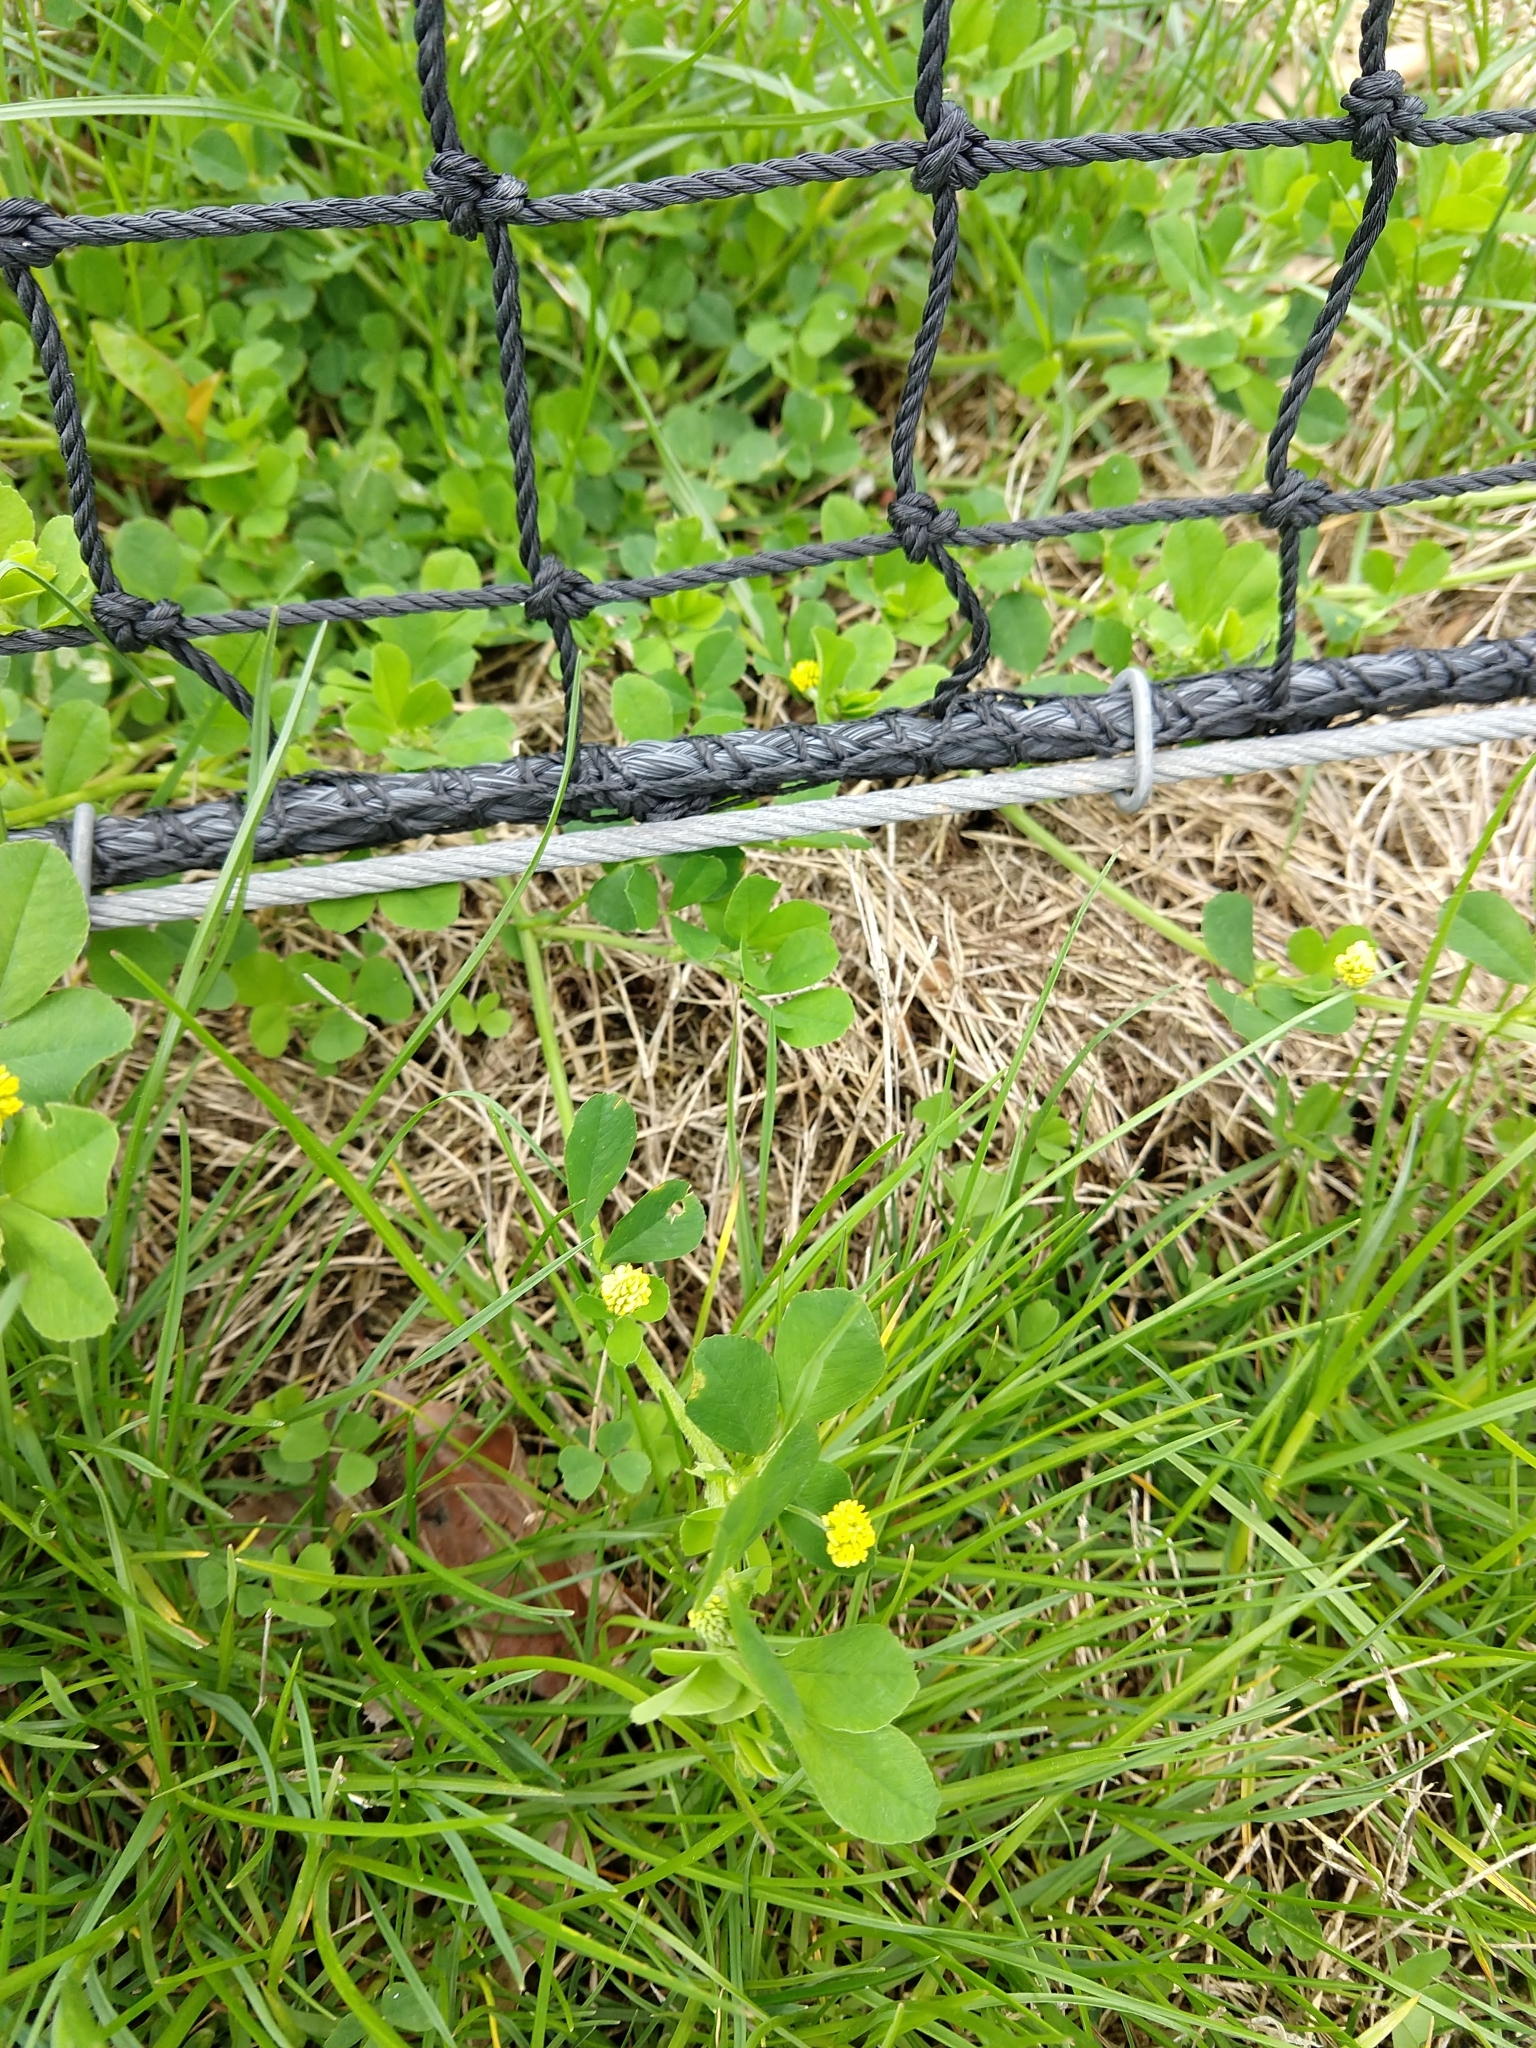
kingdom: Plantae
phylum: Tracheophyta
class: Magnoliopsida
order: Fabales
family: Fabaceae
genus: Medicago
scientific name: Medicago lupulina
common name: Black medick
